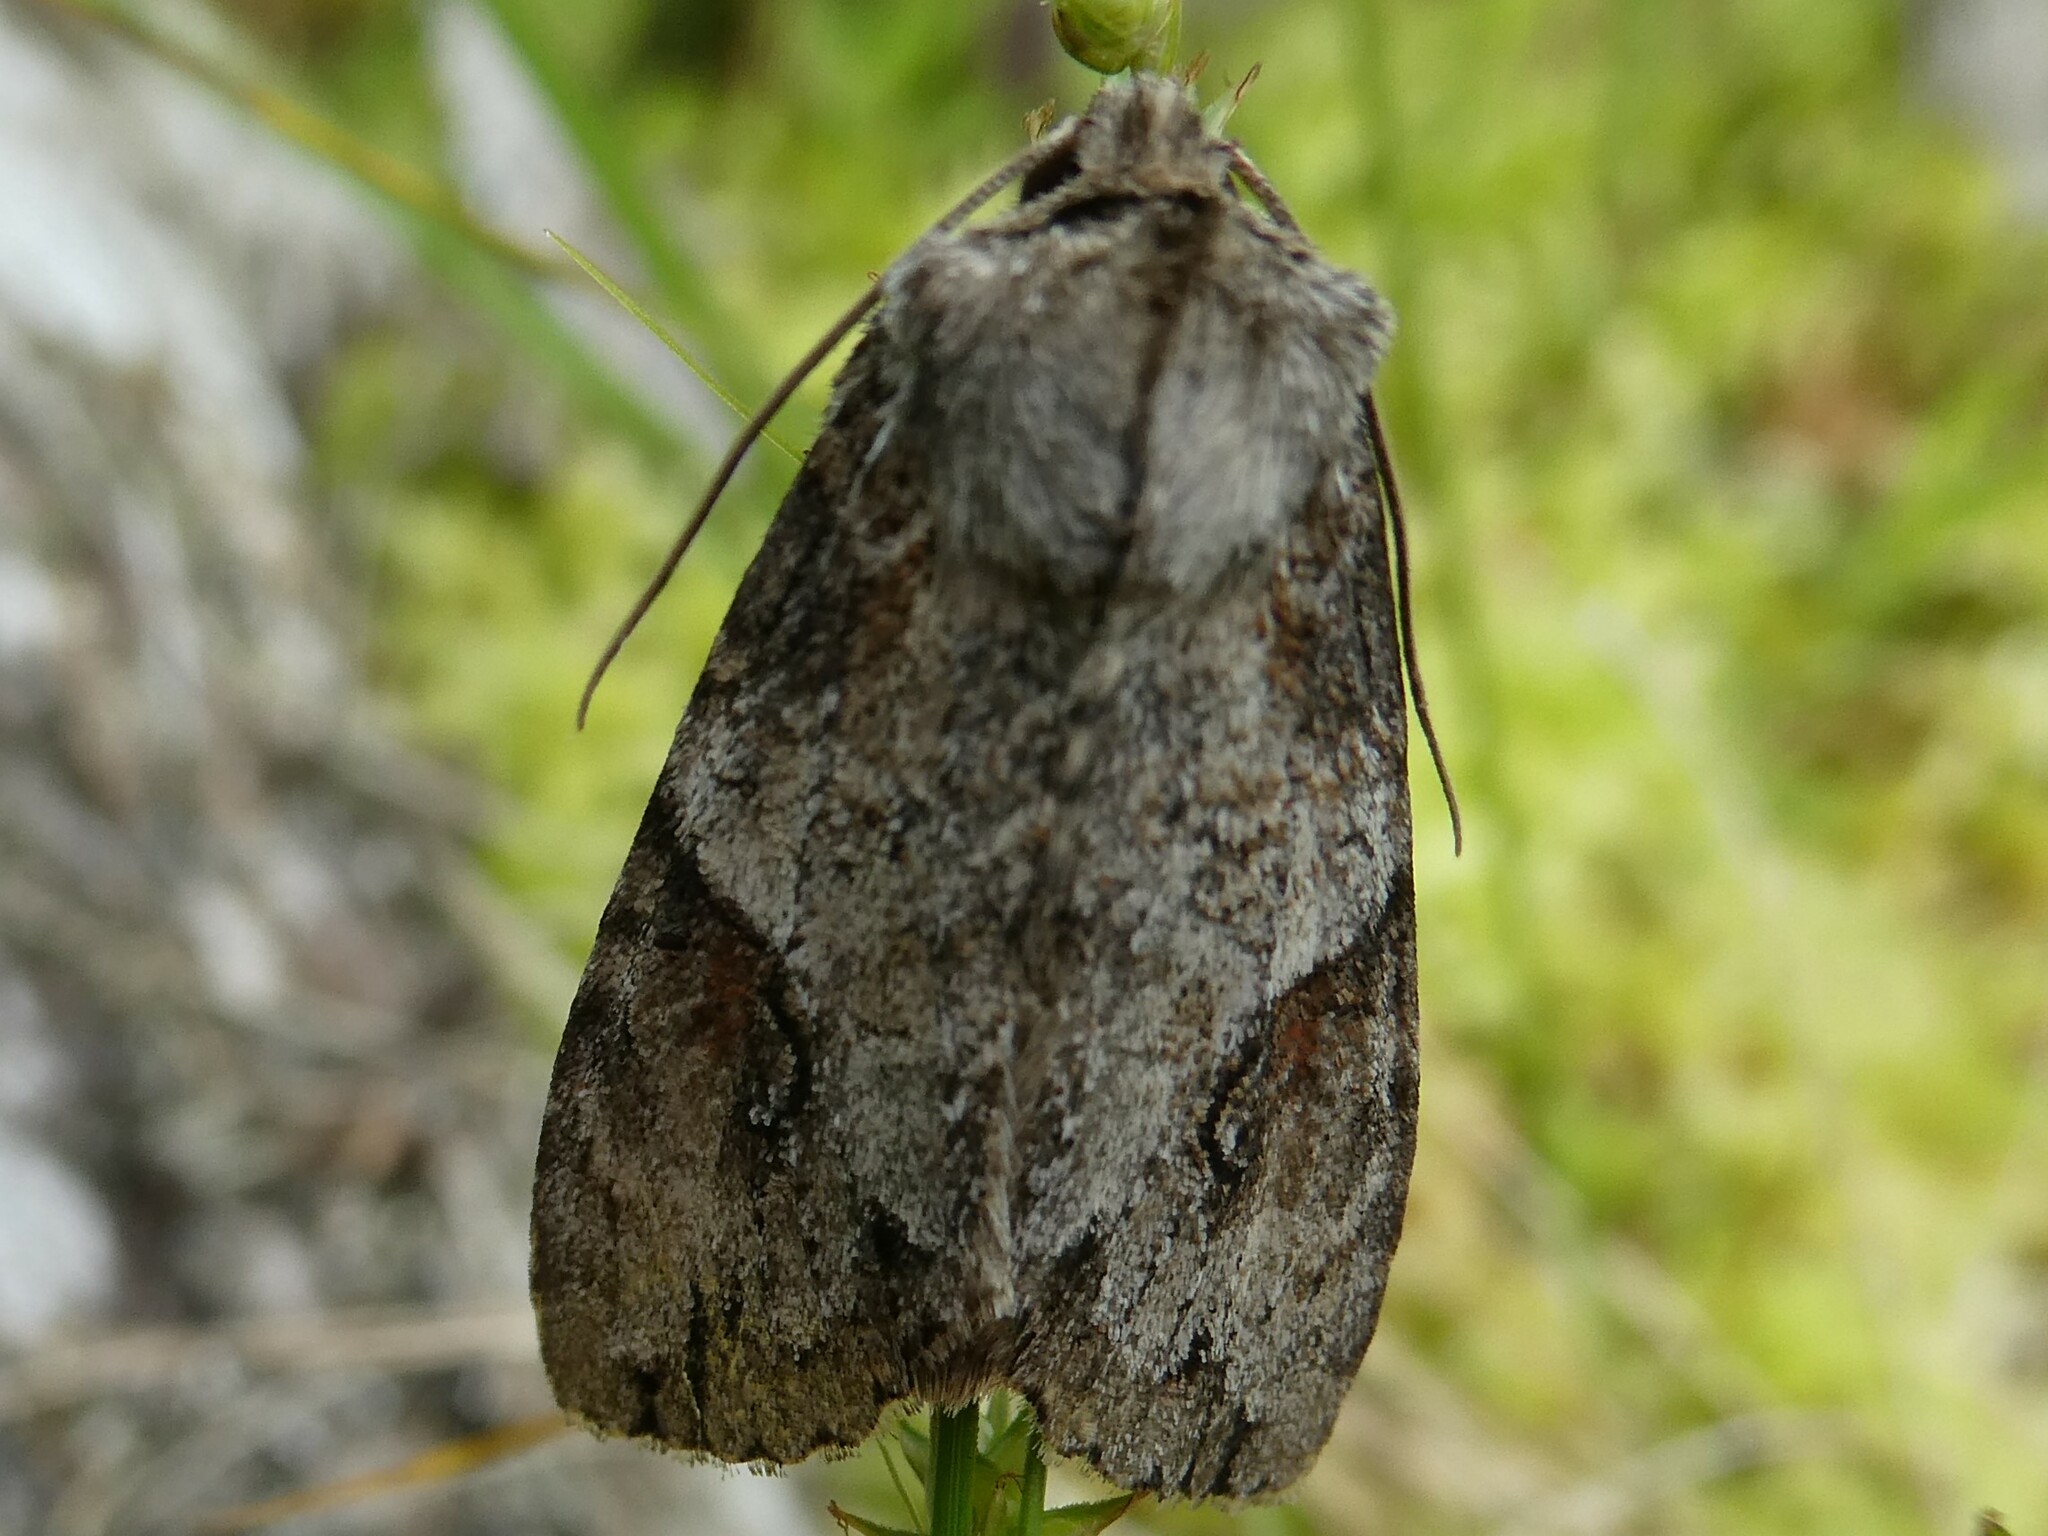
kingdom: Animalia
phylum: Arthropoda
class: Insecta
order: Lepidoptera
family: Noctuidae
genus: Achatia
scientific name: Achatia latex
